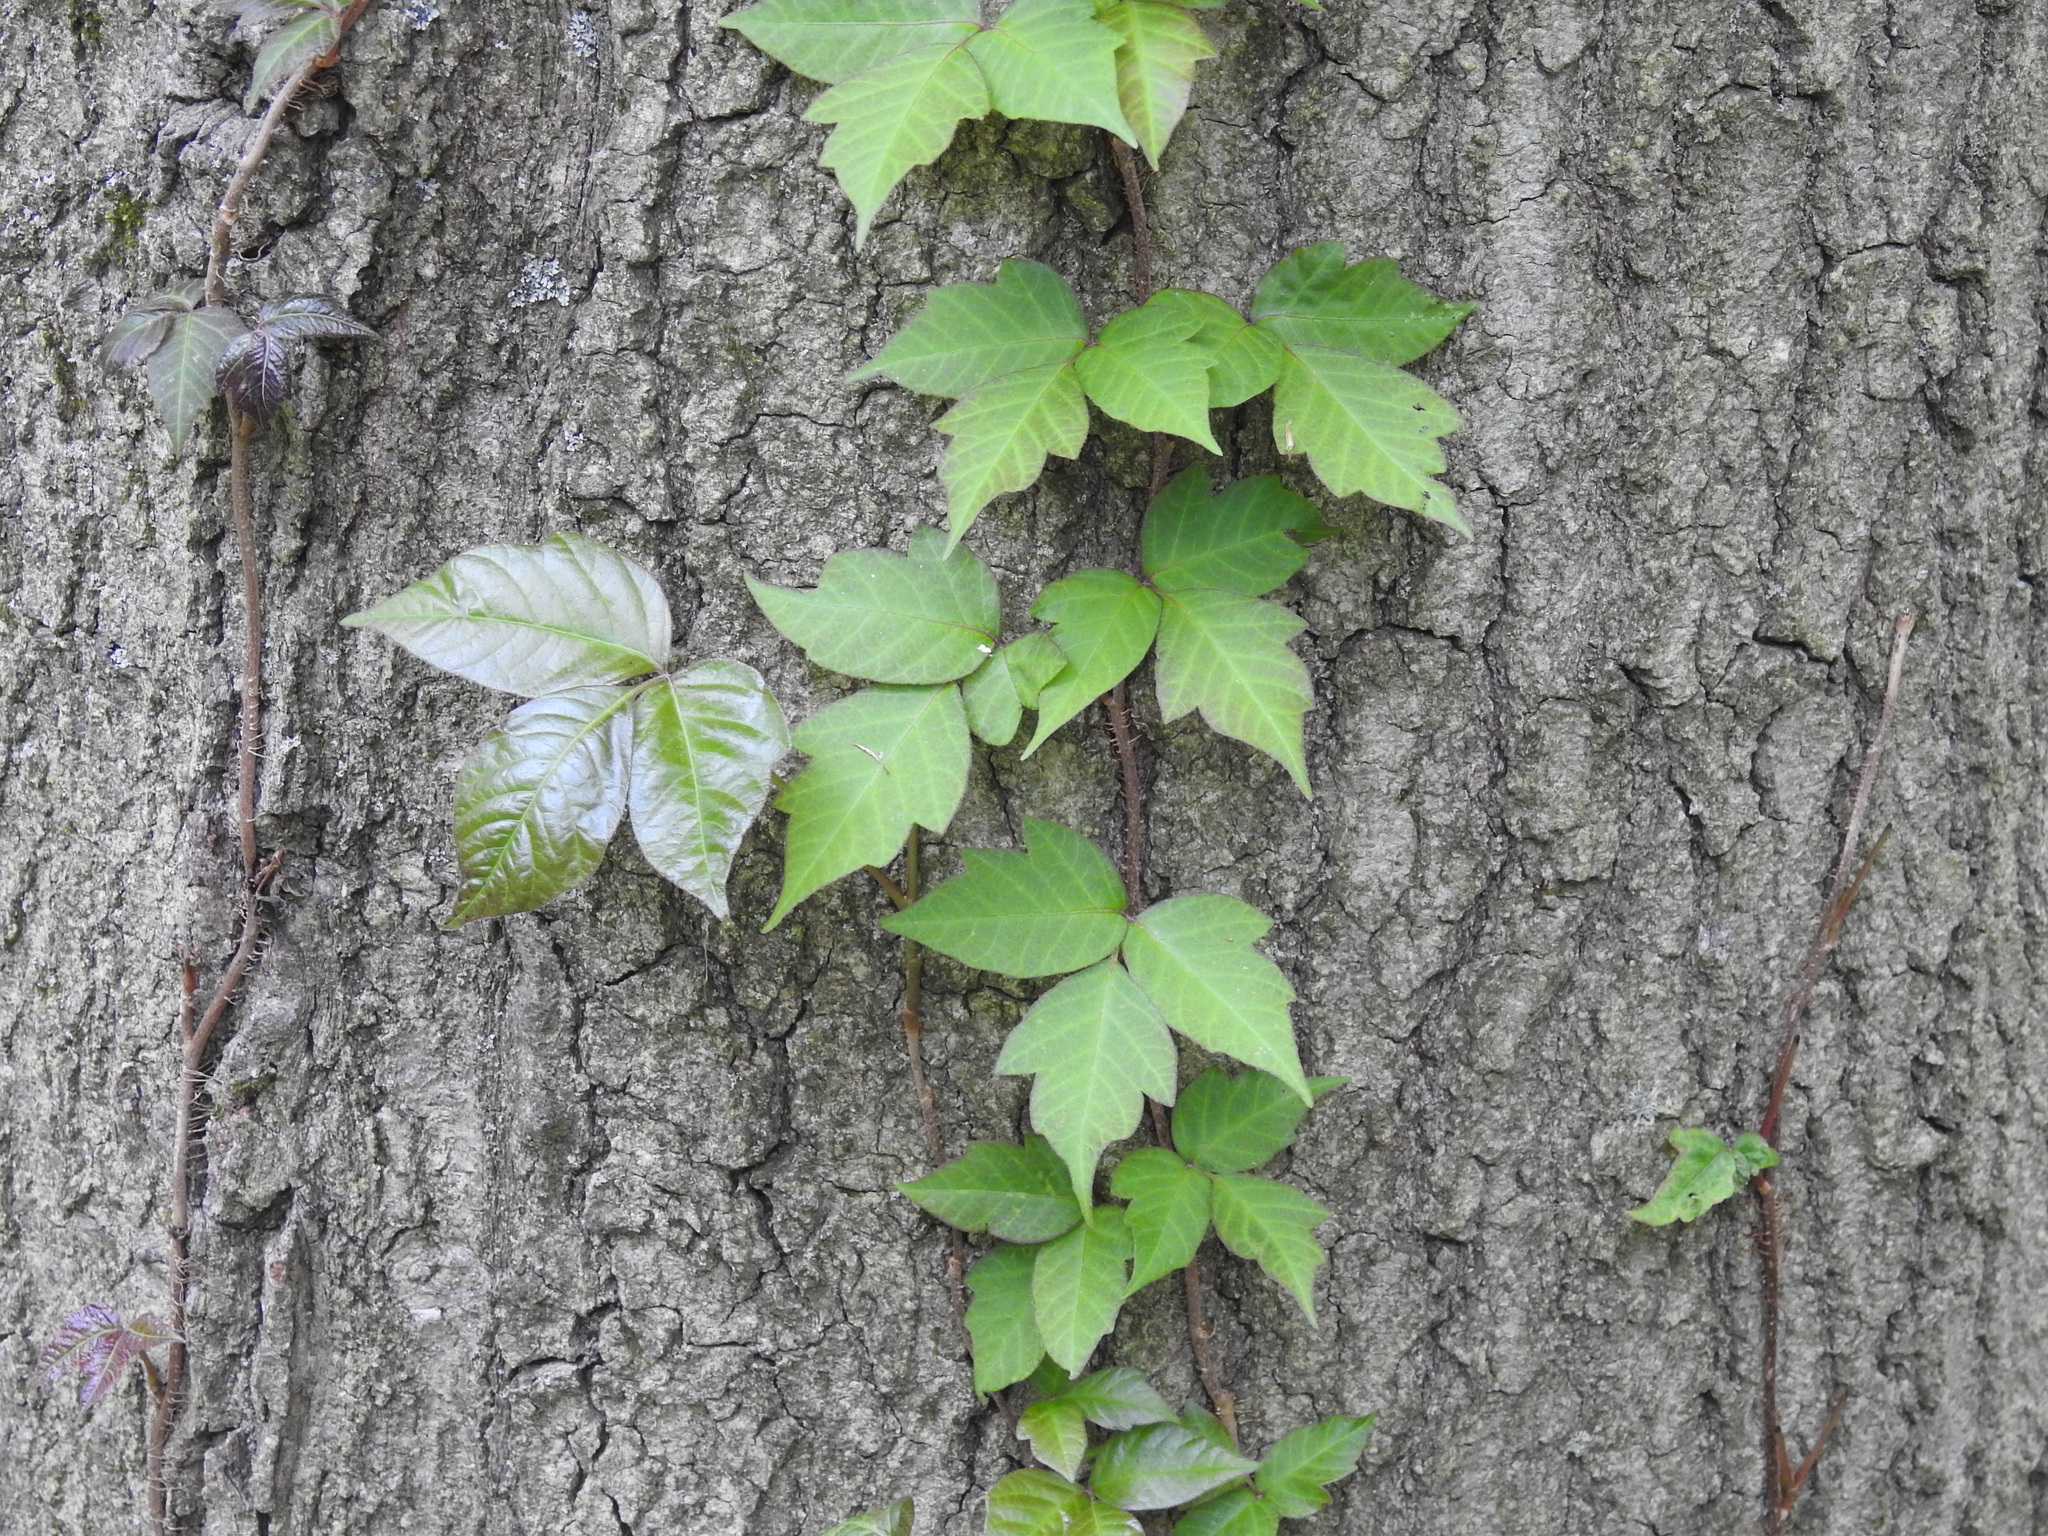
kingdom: Plantae
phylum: Tracheophyta
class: Magnoliopsida
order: Sapindales
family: Anacardiaceae
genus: Toxicodendron
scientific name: Toxicodendron radicans
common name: Poison ivy
